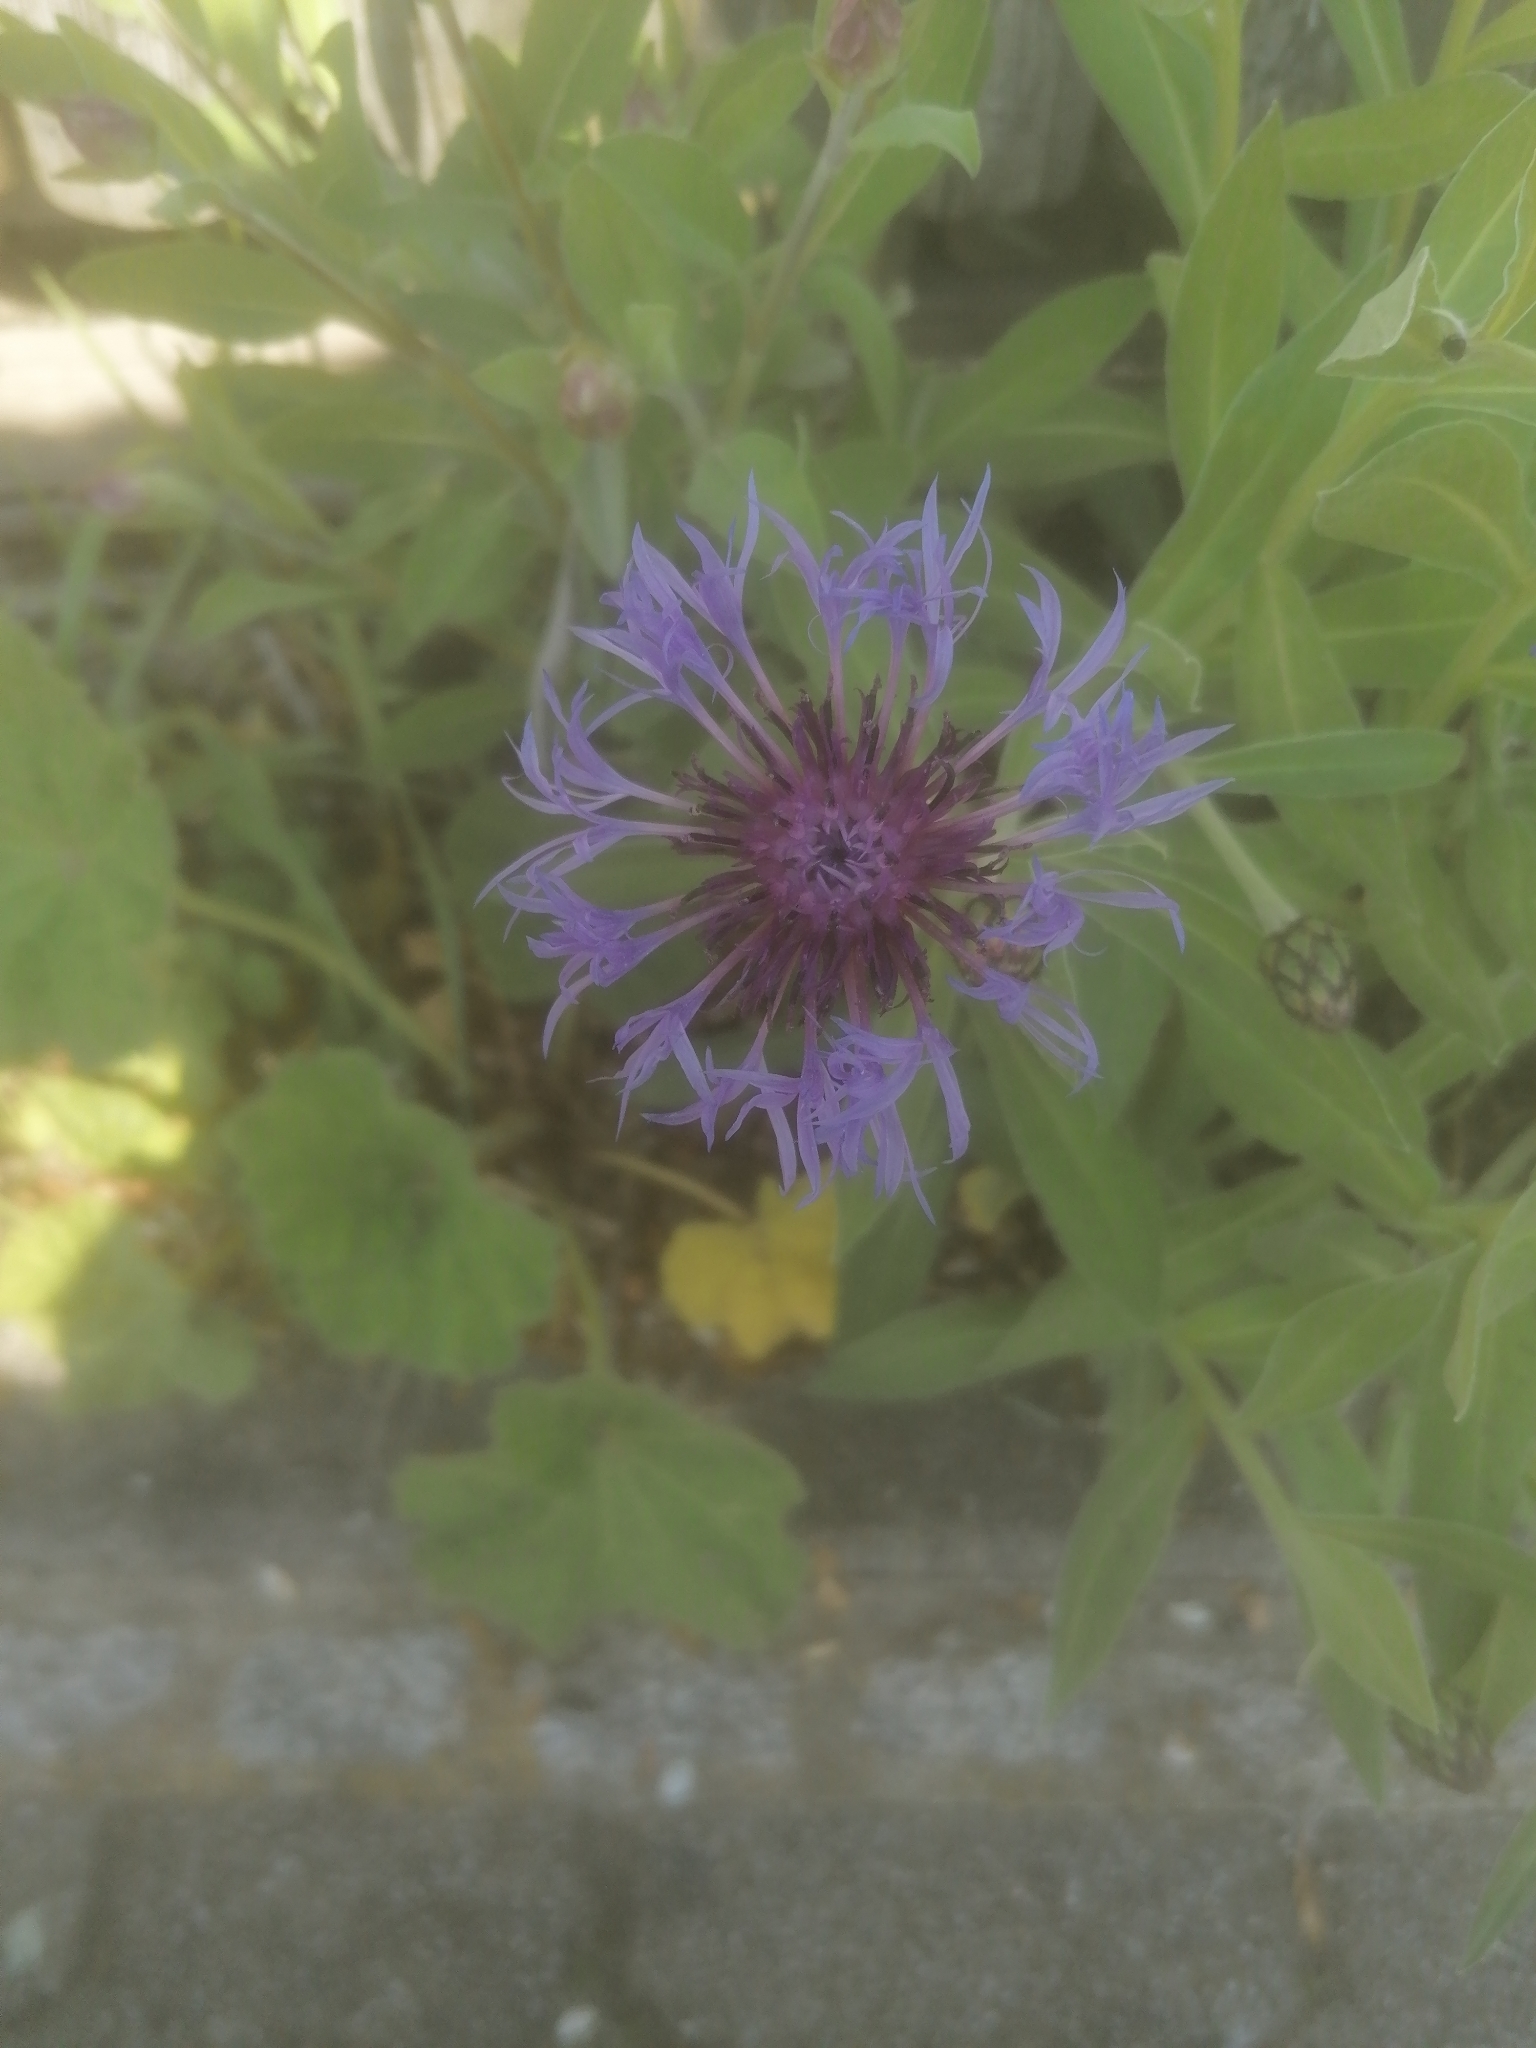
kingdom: Plantae
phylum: Tracheophyta
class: Magnoliopsida
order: Asterales
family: Asteraceae
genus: Centaurea
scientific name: Centaurea montana
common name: Perennial cornflower
